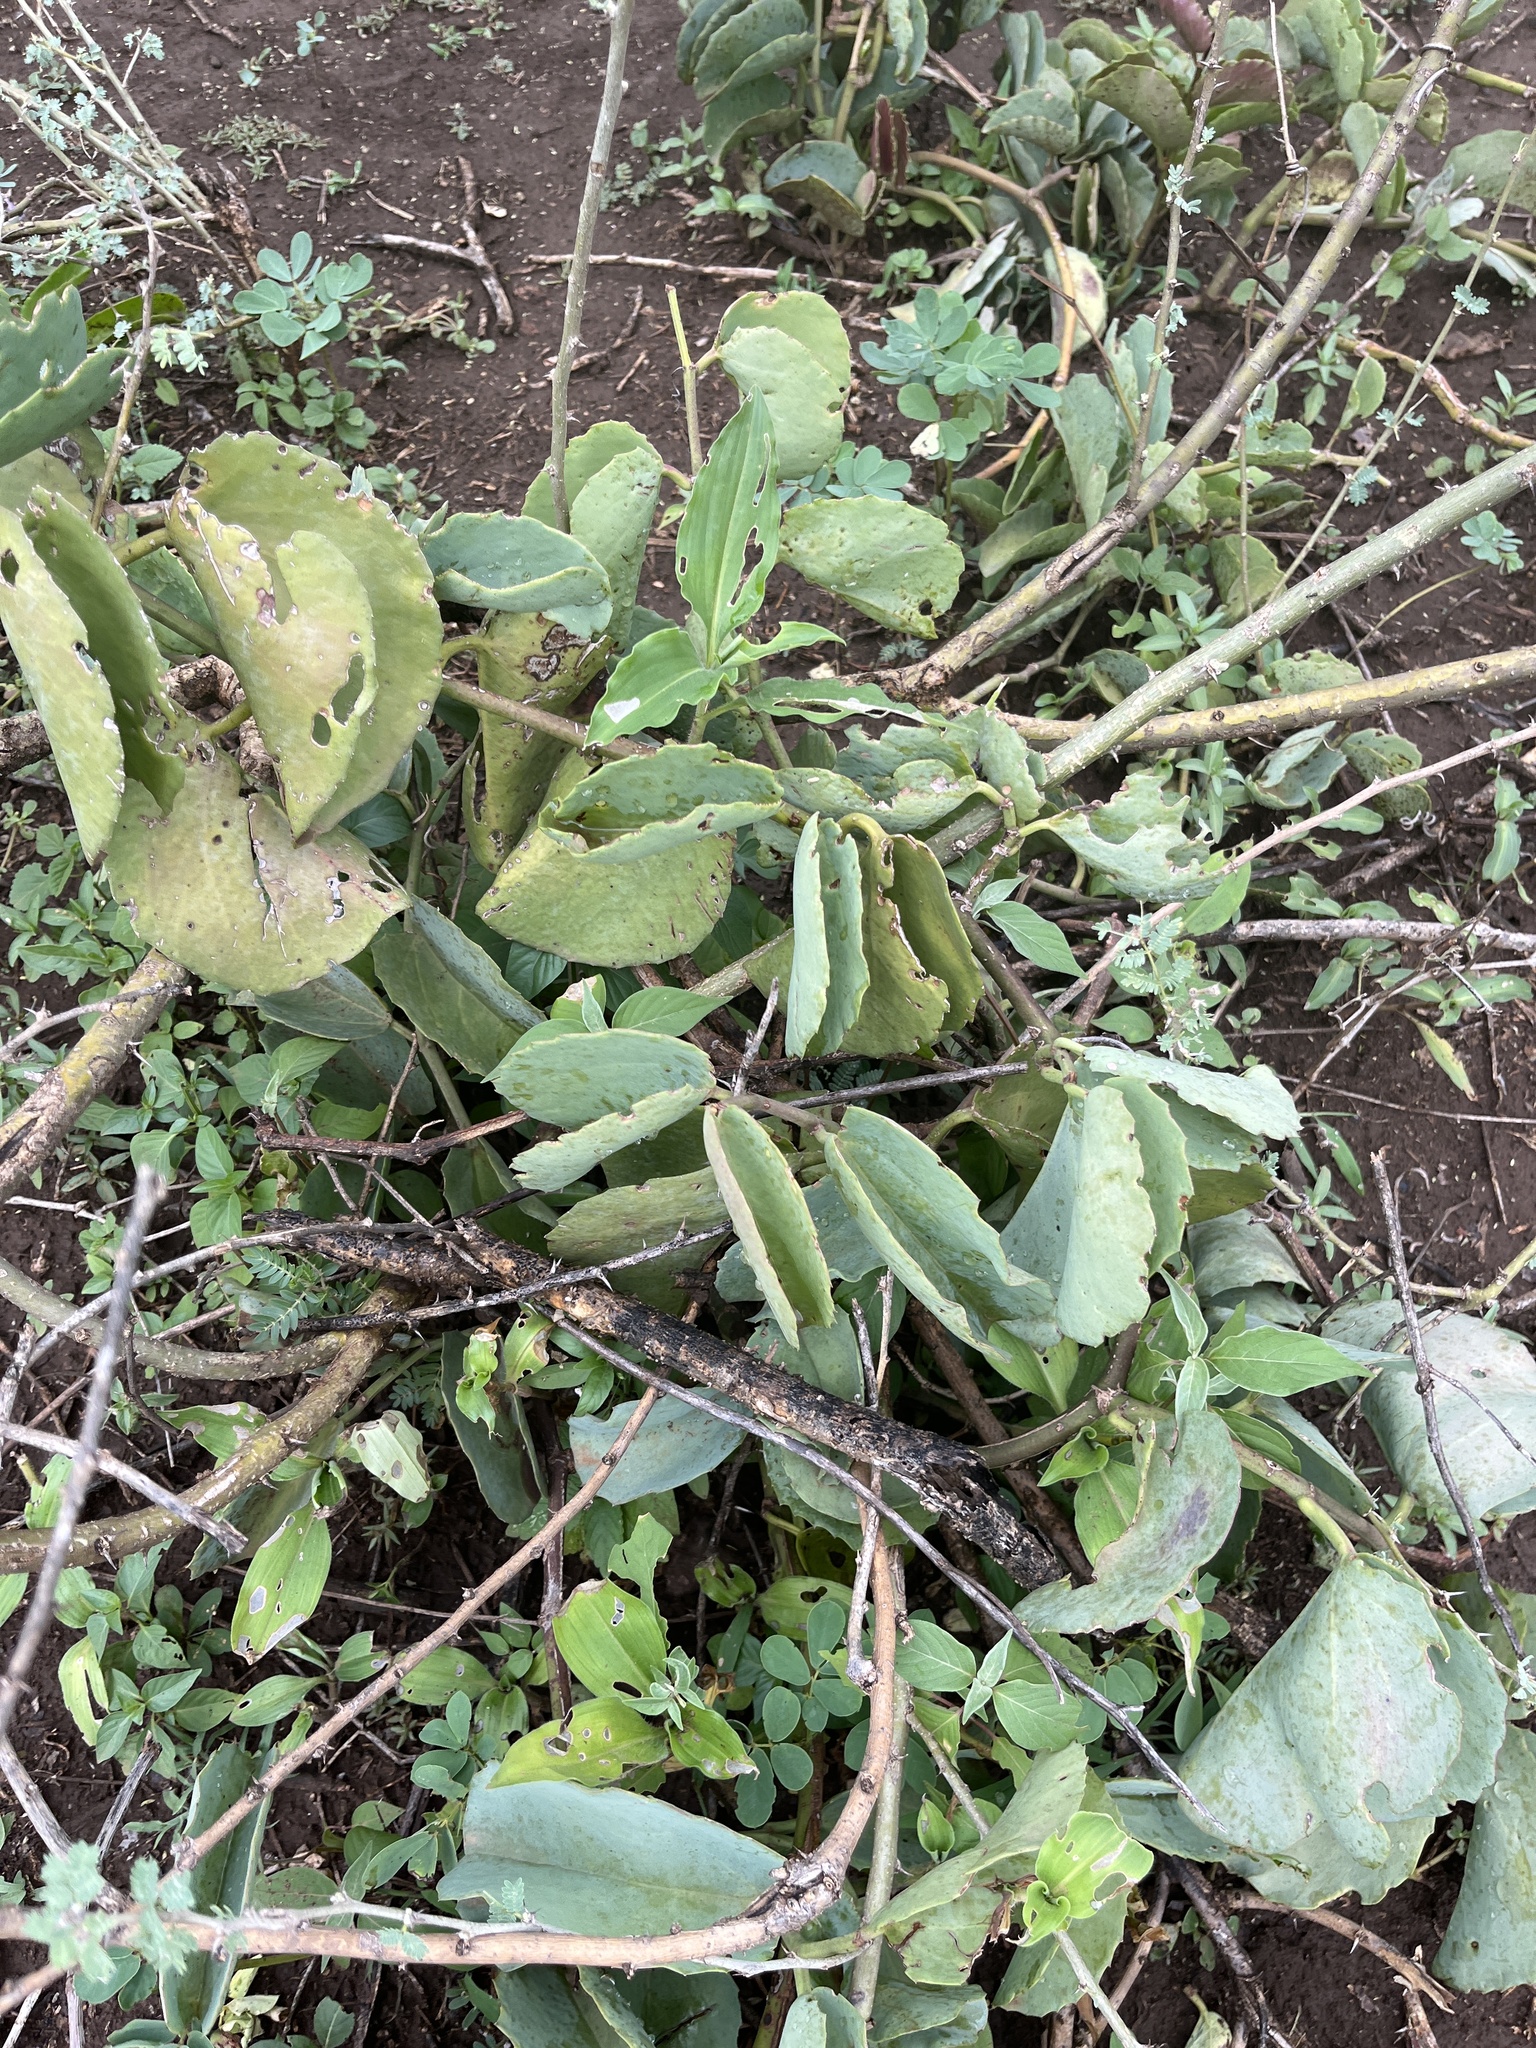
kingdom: Plantae
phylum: Tracheophyta
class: Magnoliopsida
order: Vitales
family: Vitaceae
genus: Cissus
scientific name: Cissus rotundifolia
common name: Arabian wax cissus
